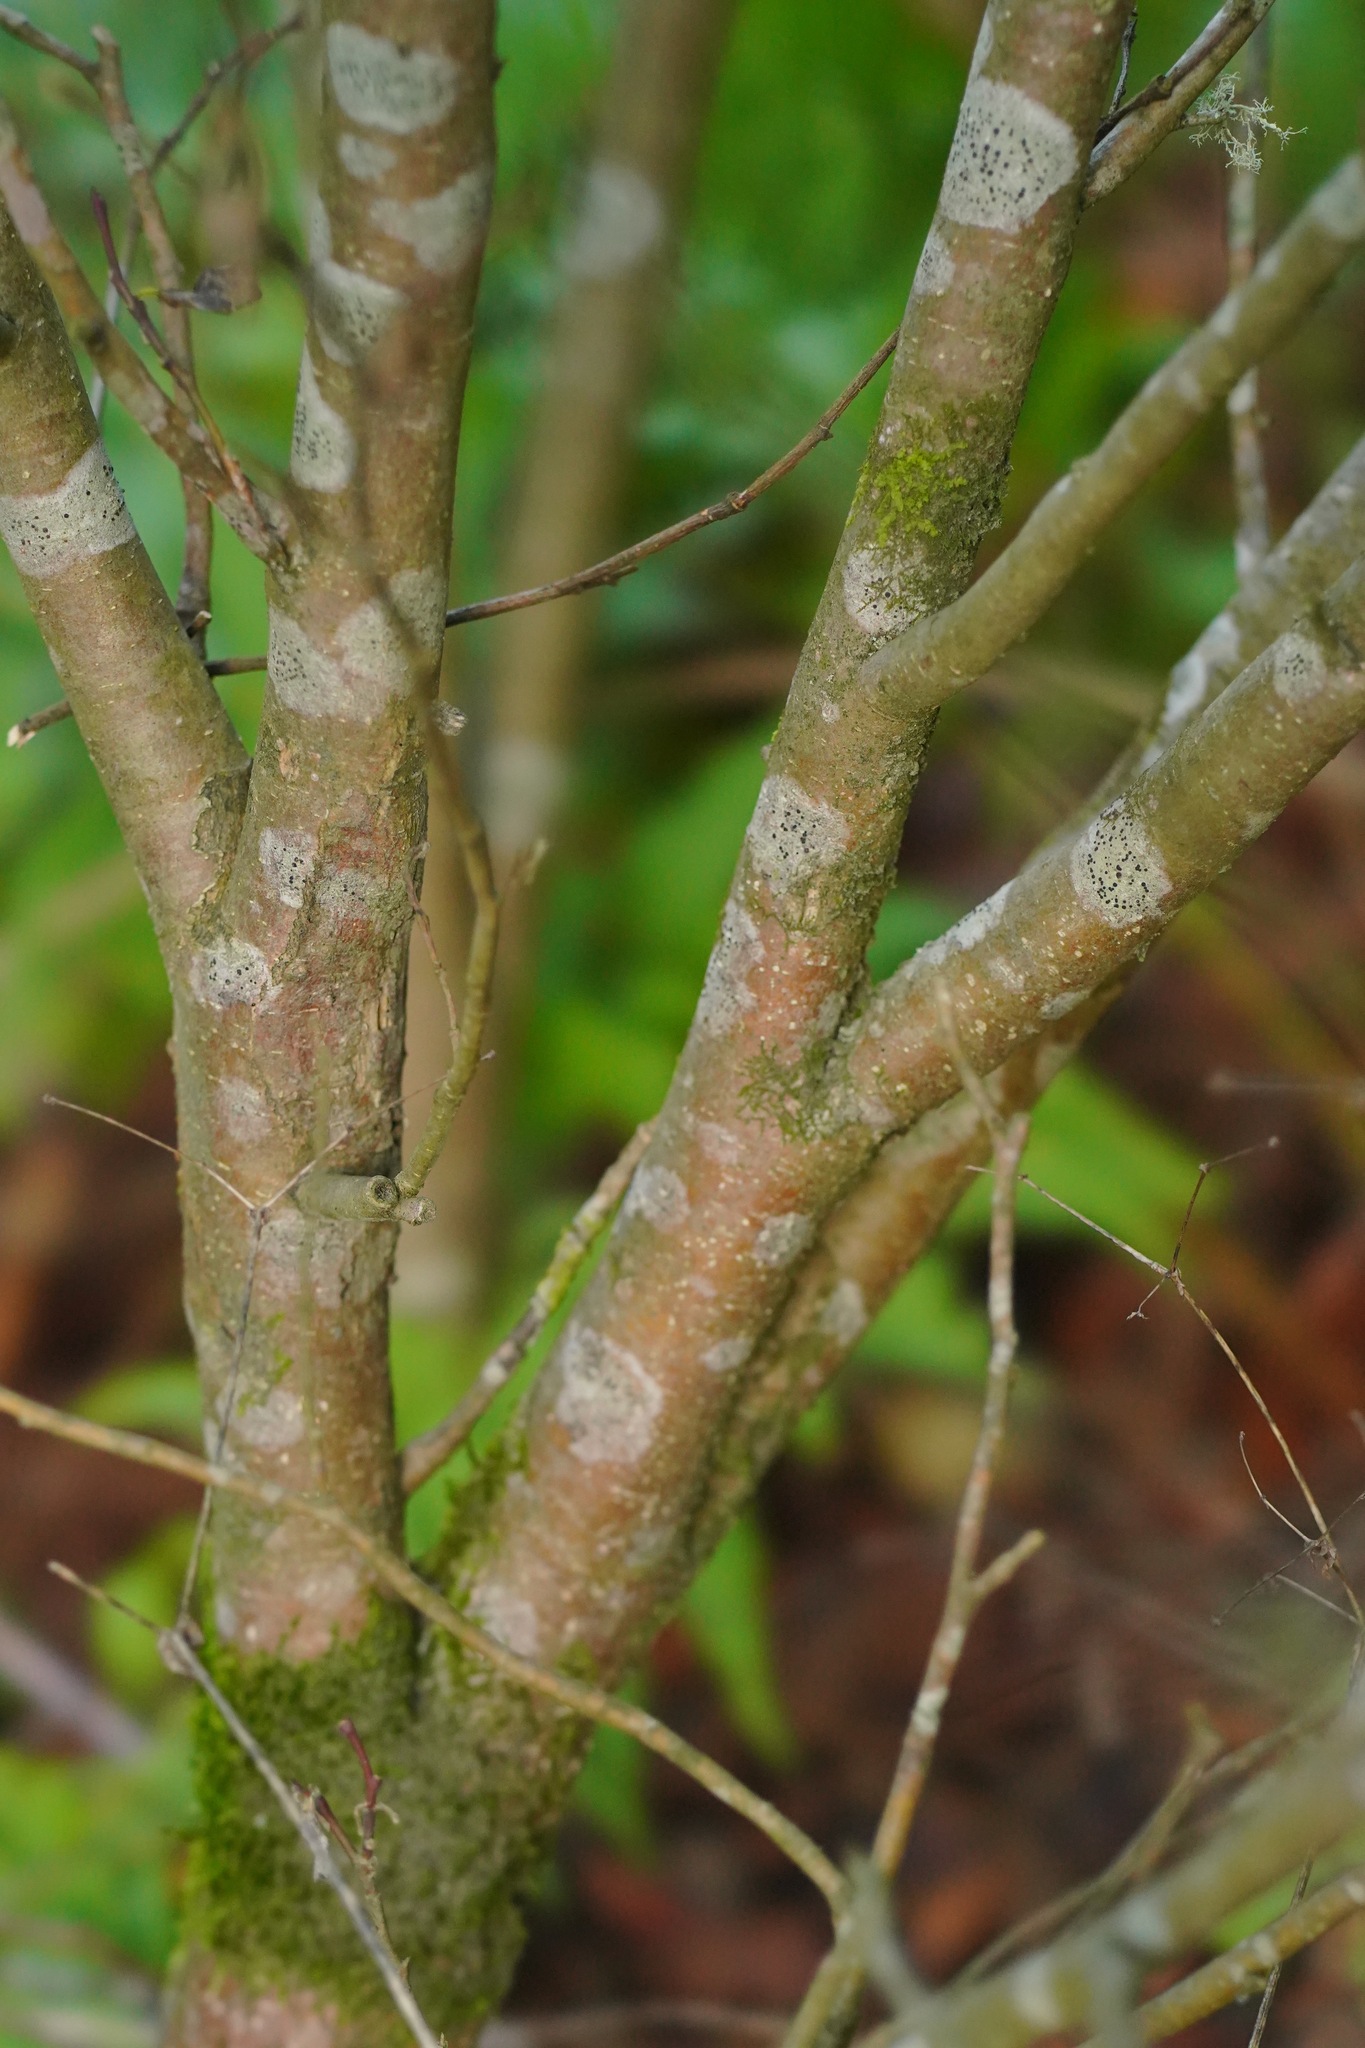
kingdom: Plantae
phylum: Tracheophyta
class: Magnoliopsida
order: Malvales
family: Thymelaeaceae
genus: Dirca
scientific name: Dirca occidentalis
